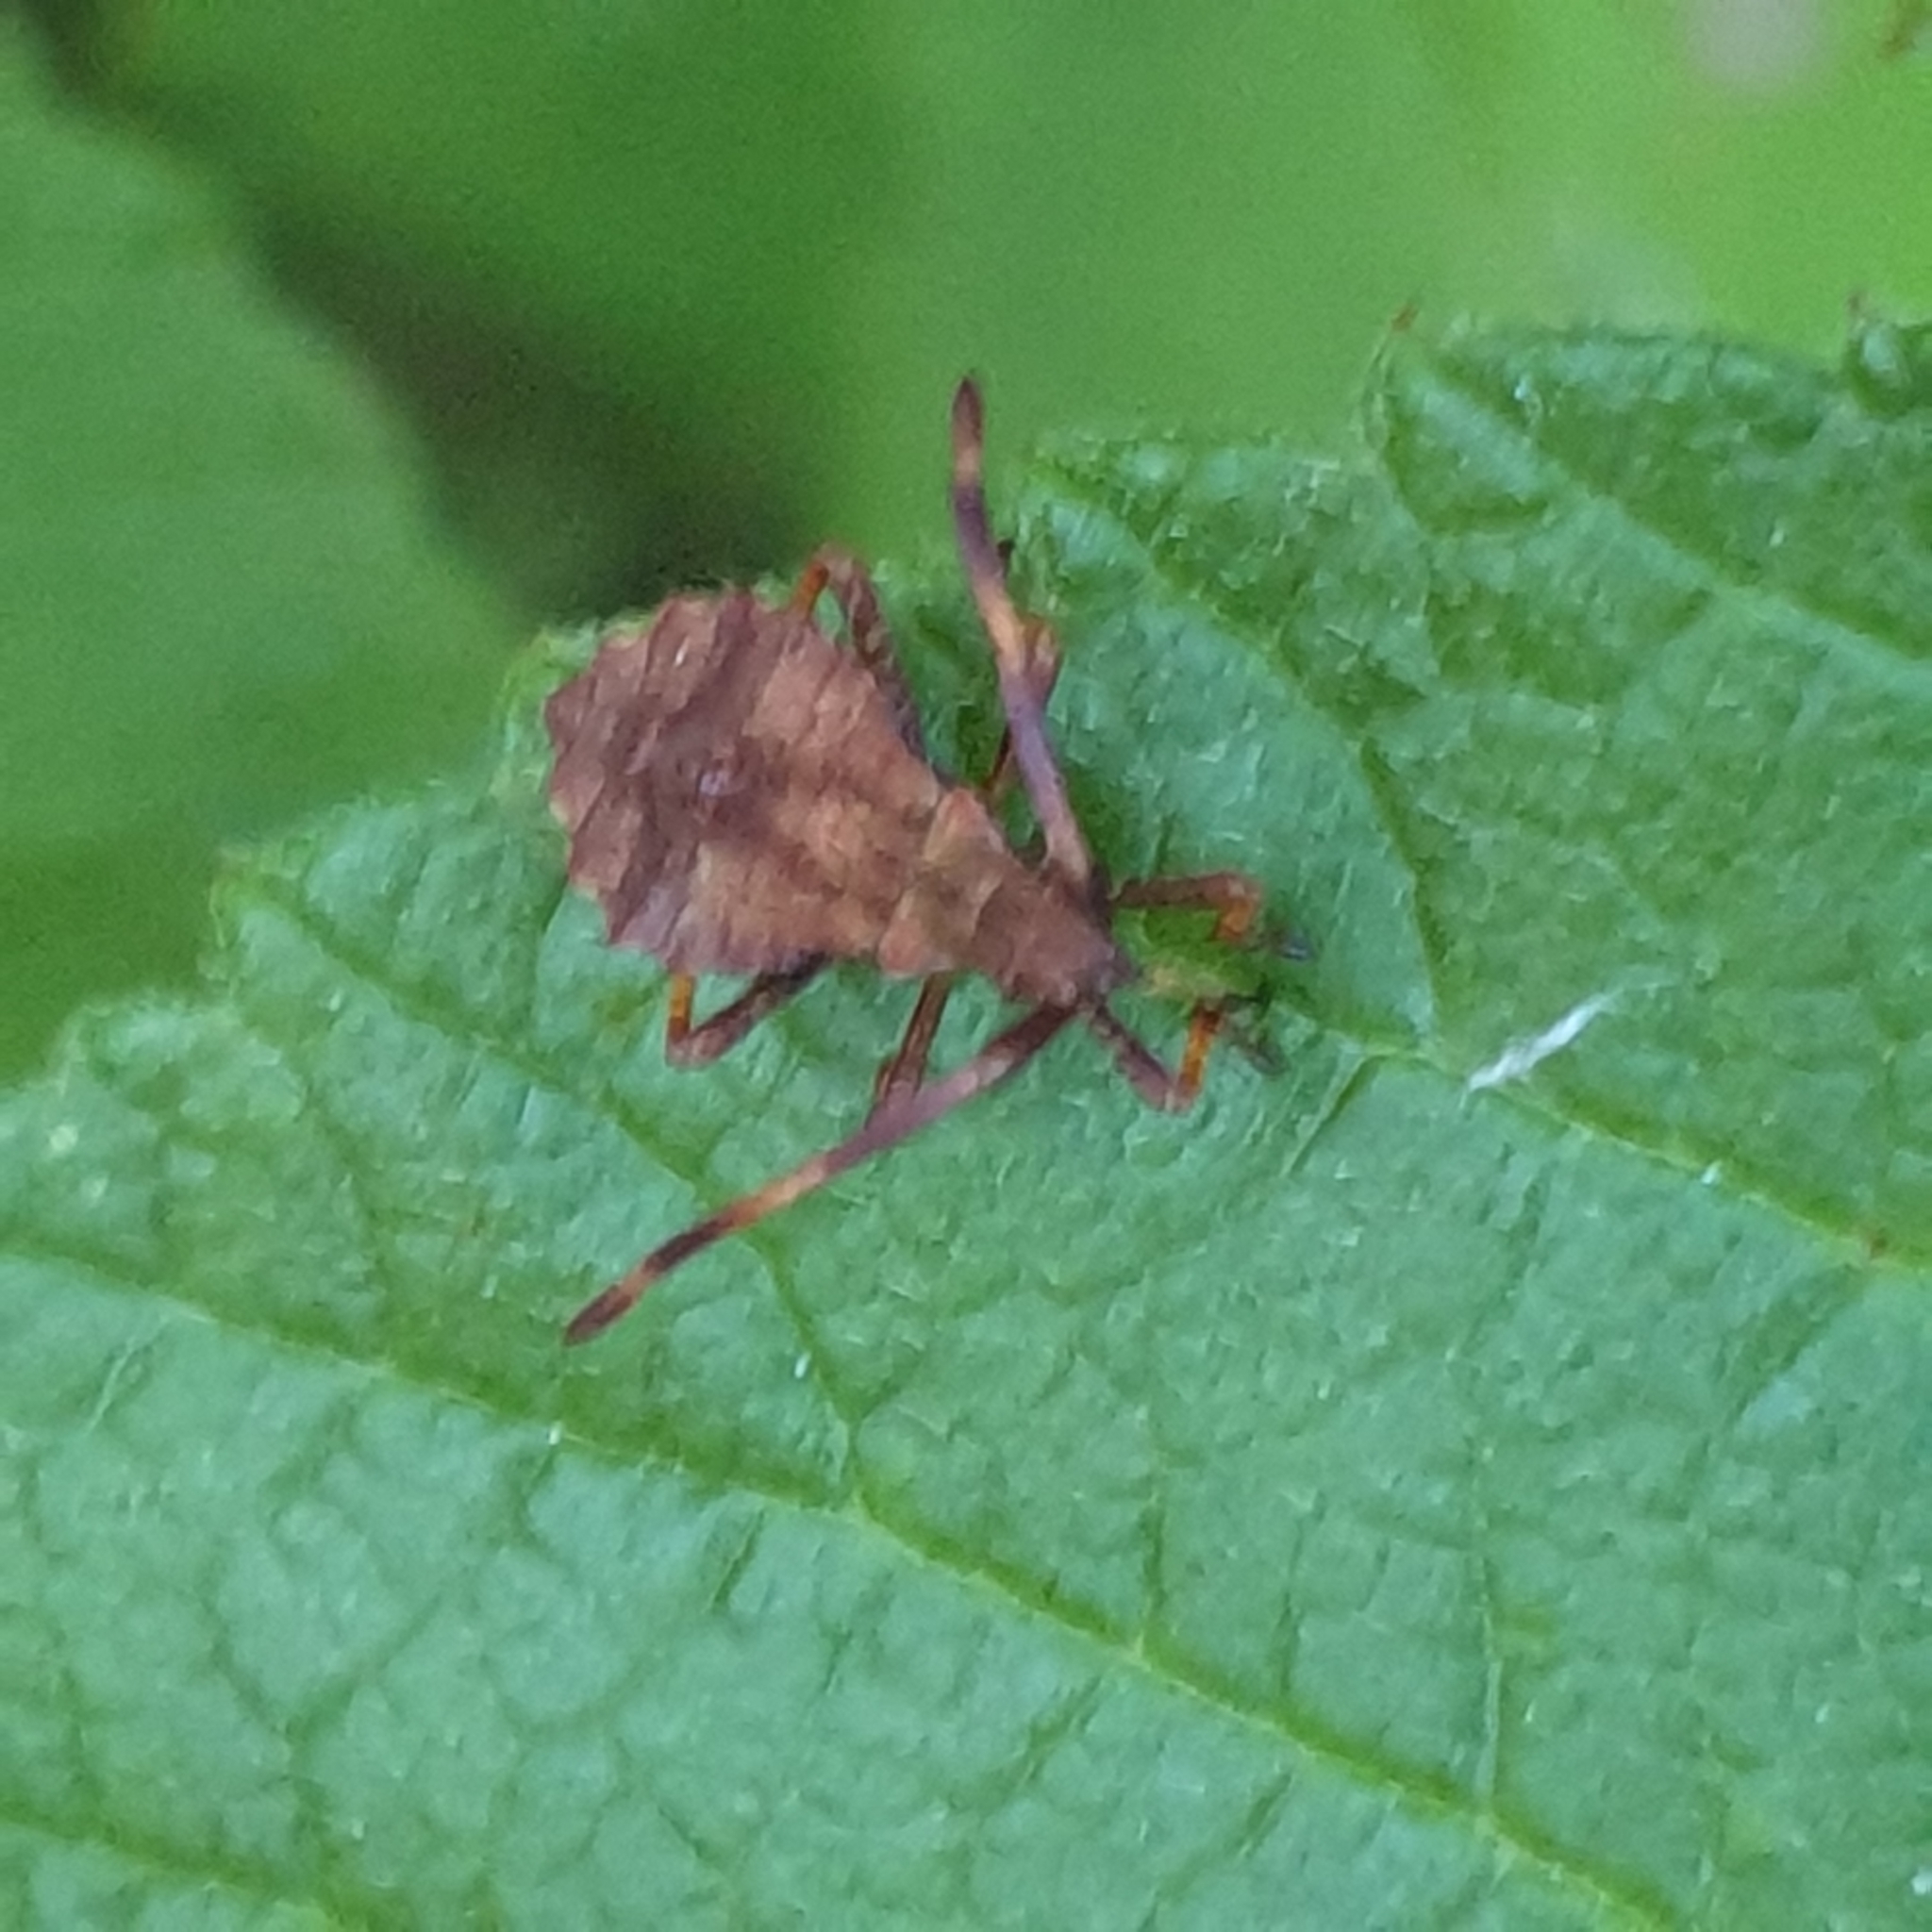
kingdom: Animalia
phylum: Arthropoda
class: Insecta
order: Hemiptera
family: Coreidae
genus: Coreus
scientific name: Coreus marginatus
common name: Dock bug
